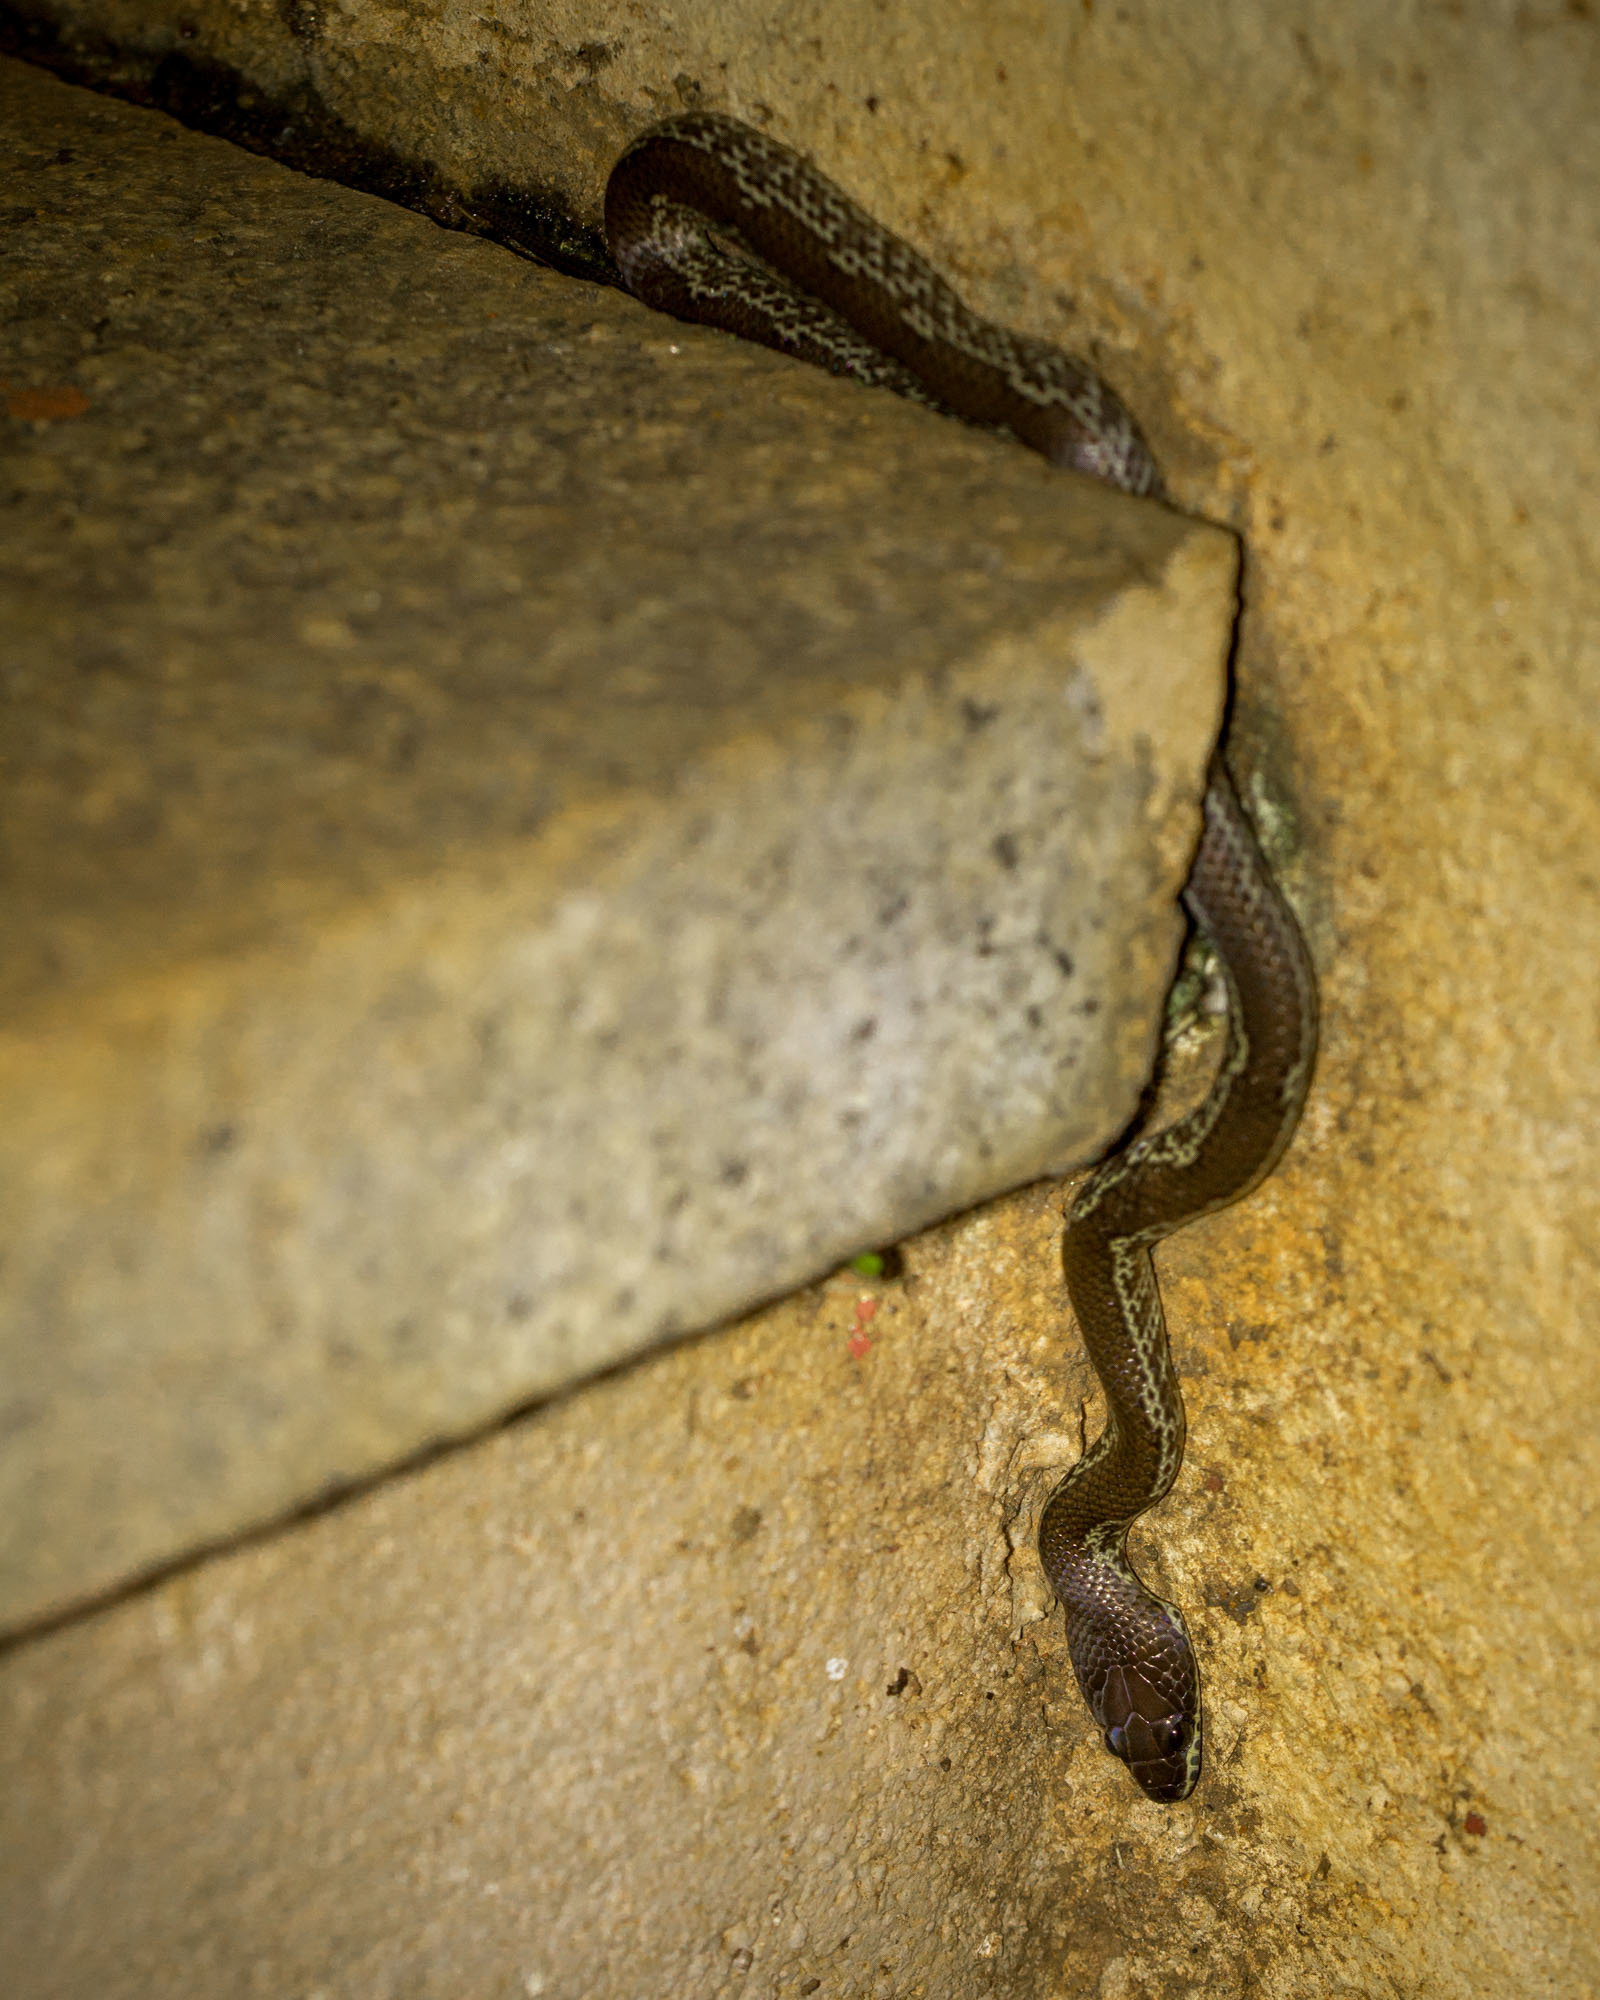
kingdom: Animalia
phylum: Chordata
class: Squamata
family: Colubridae
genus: Lycodon
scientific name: Lycodon fasciolatus
